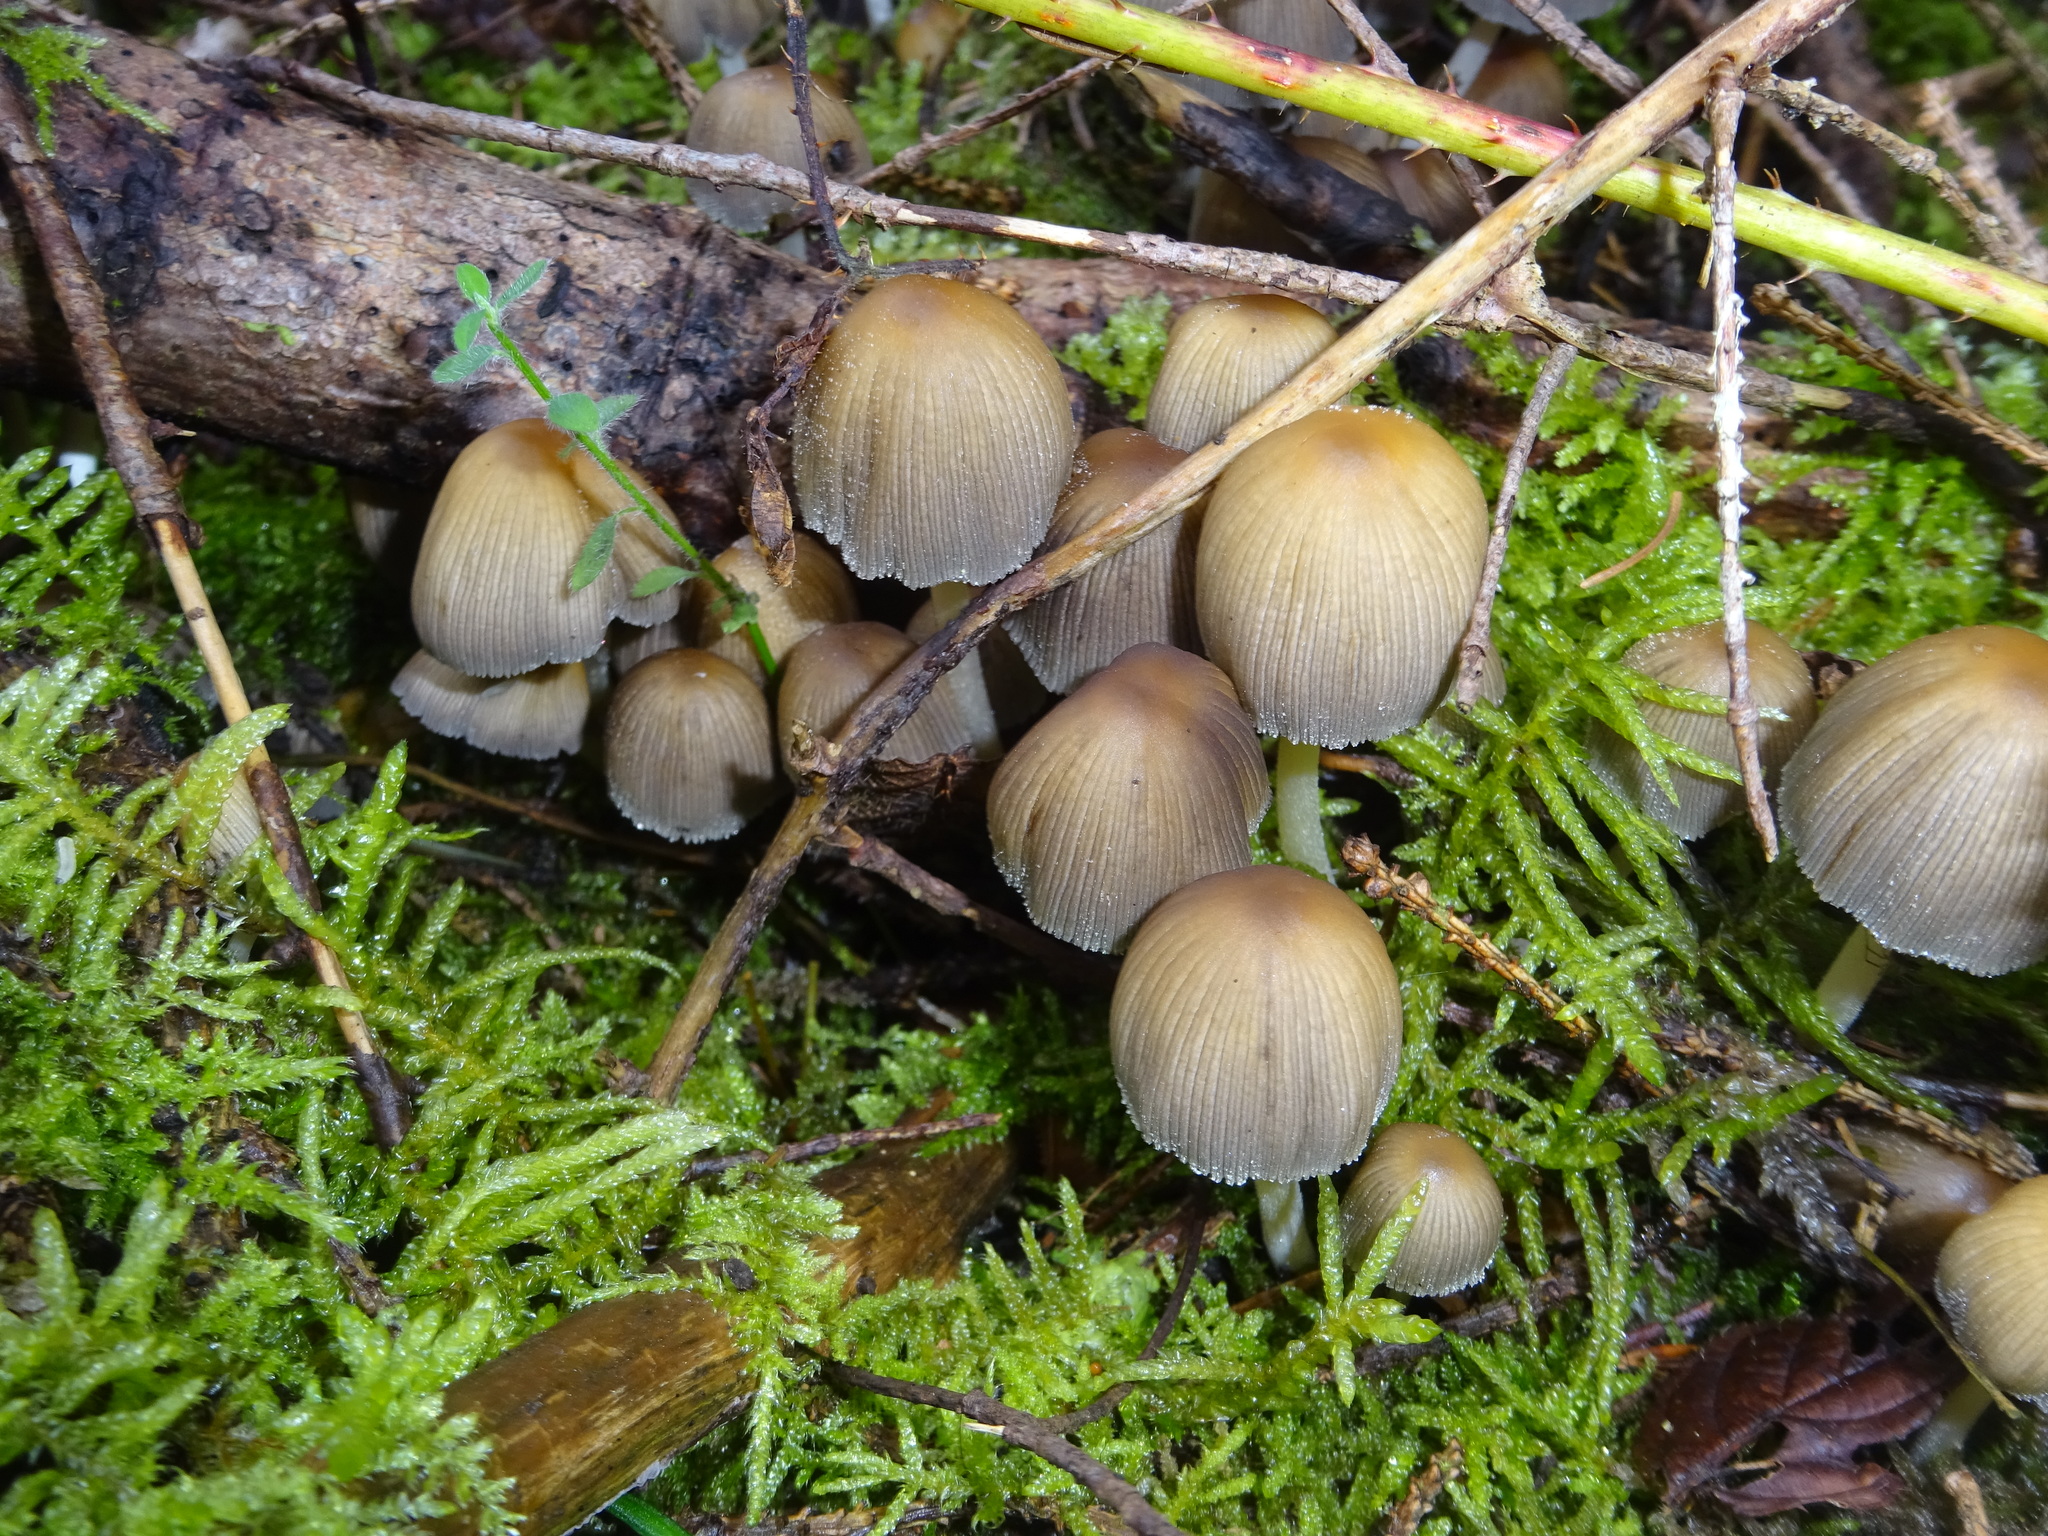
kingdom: Fungi
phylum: Basidiomycota
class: Agaricomycetes
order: Agaricales
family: Psathyrellaceae
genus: Coprinellus
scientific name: Coprinellus micaceus
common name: Glistening ink-cap
